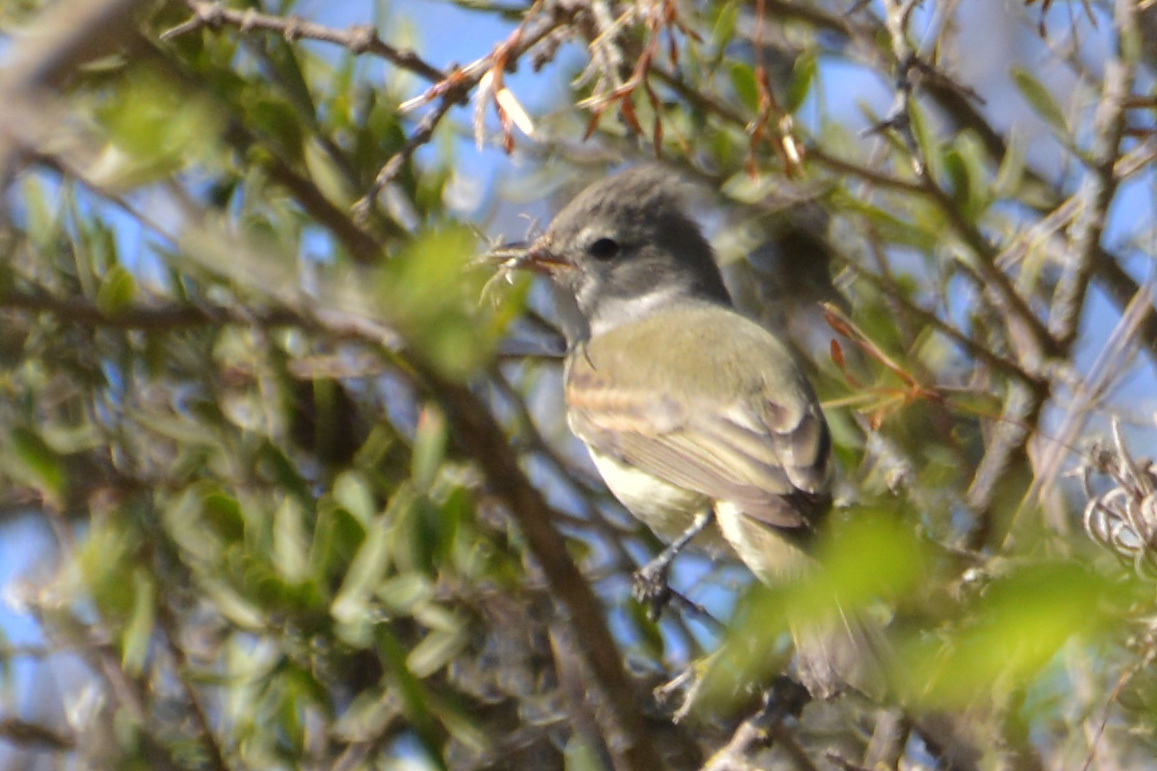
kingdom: Animalia
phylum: Chordata
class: Aves
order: Passeriformes
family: Tyrannidae
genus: Camptostoma
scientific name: Camptostoma obsoletum
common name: Southern beardless-tyrannulet
